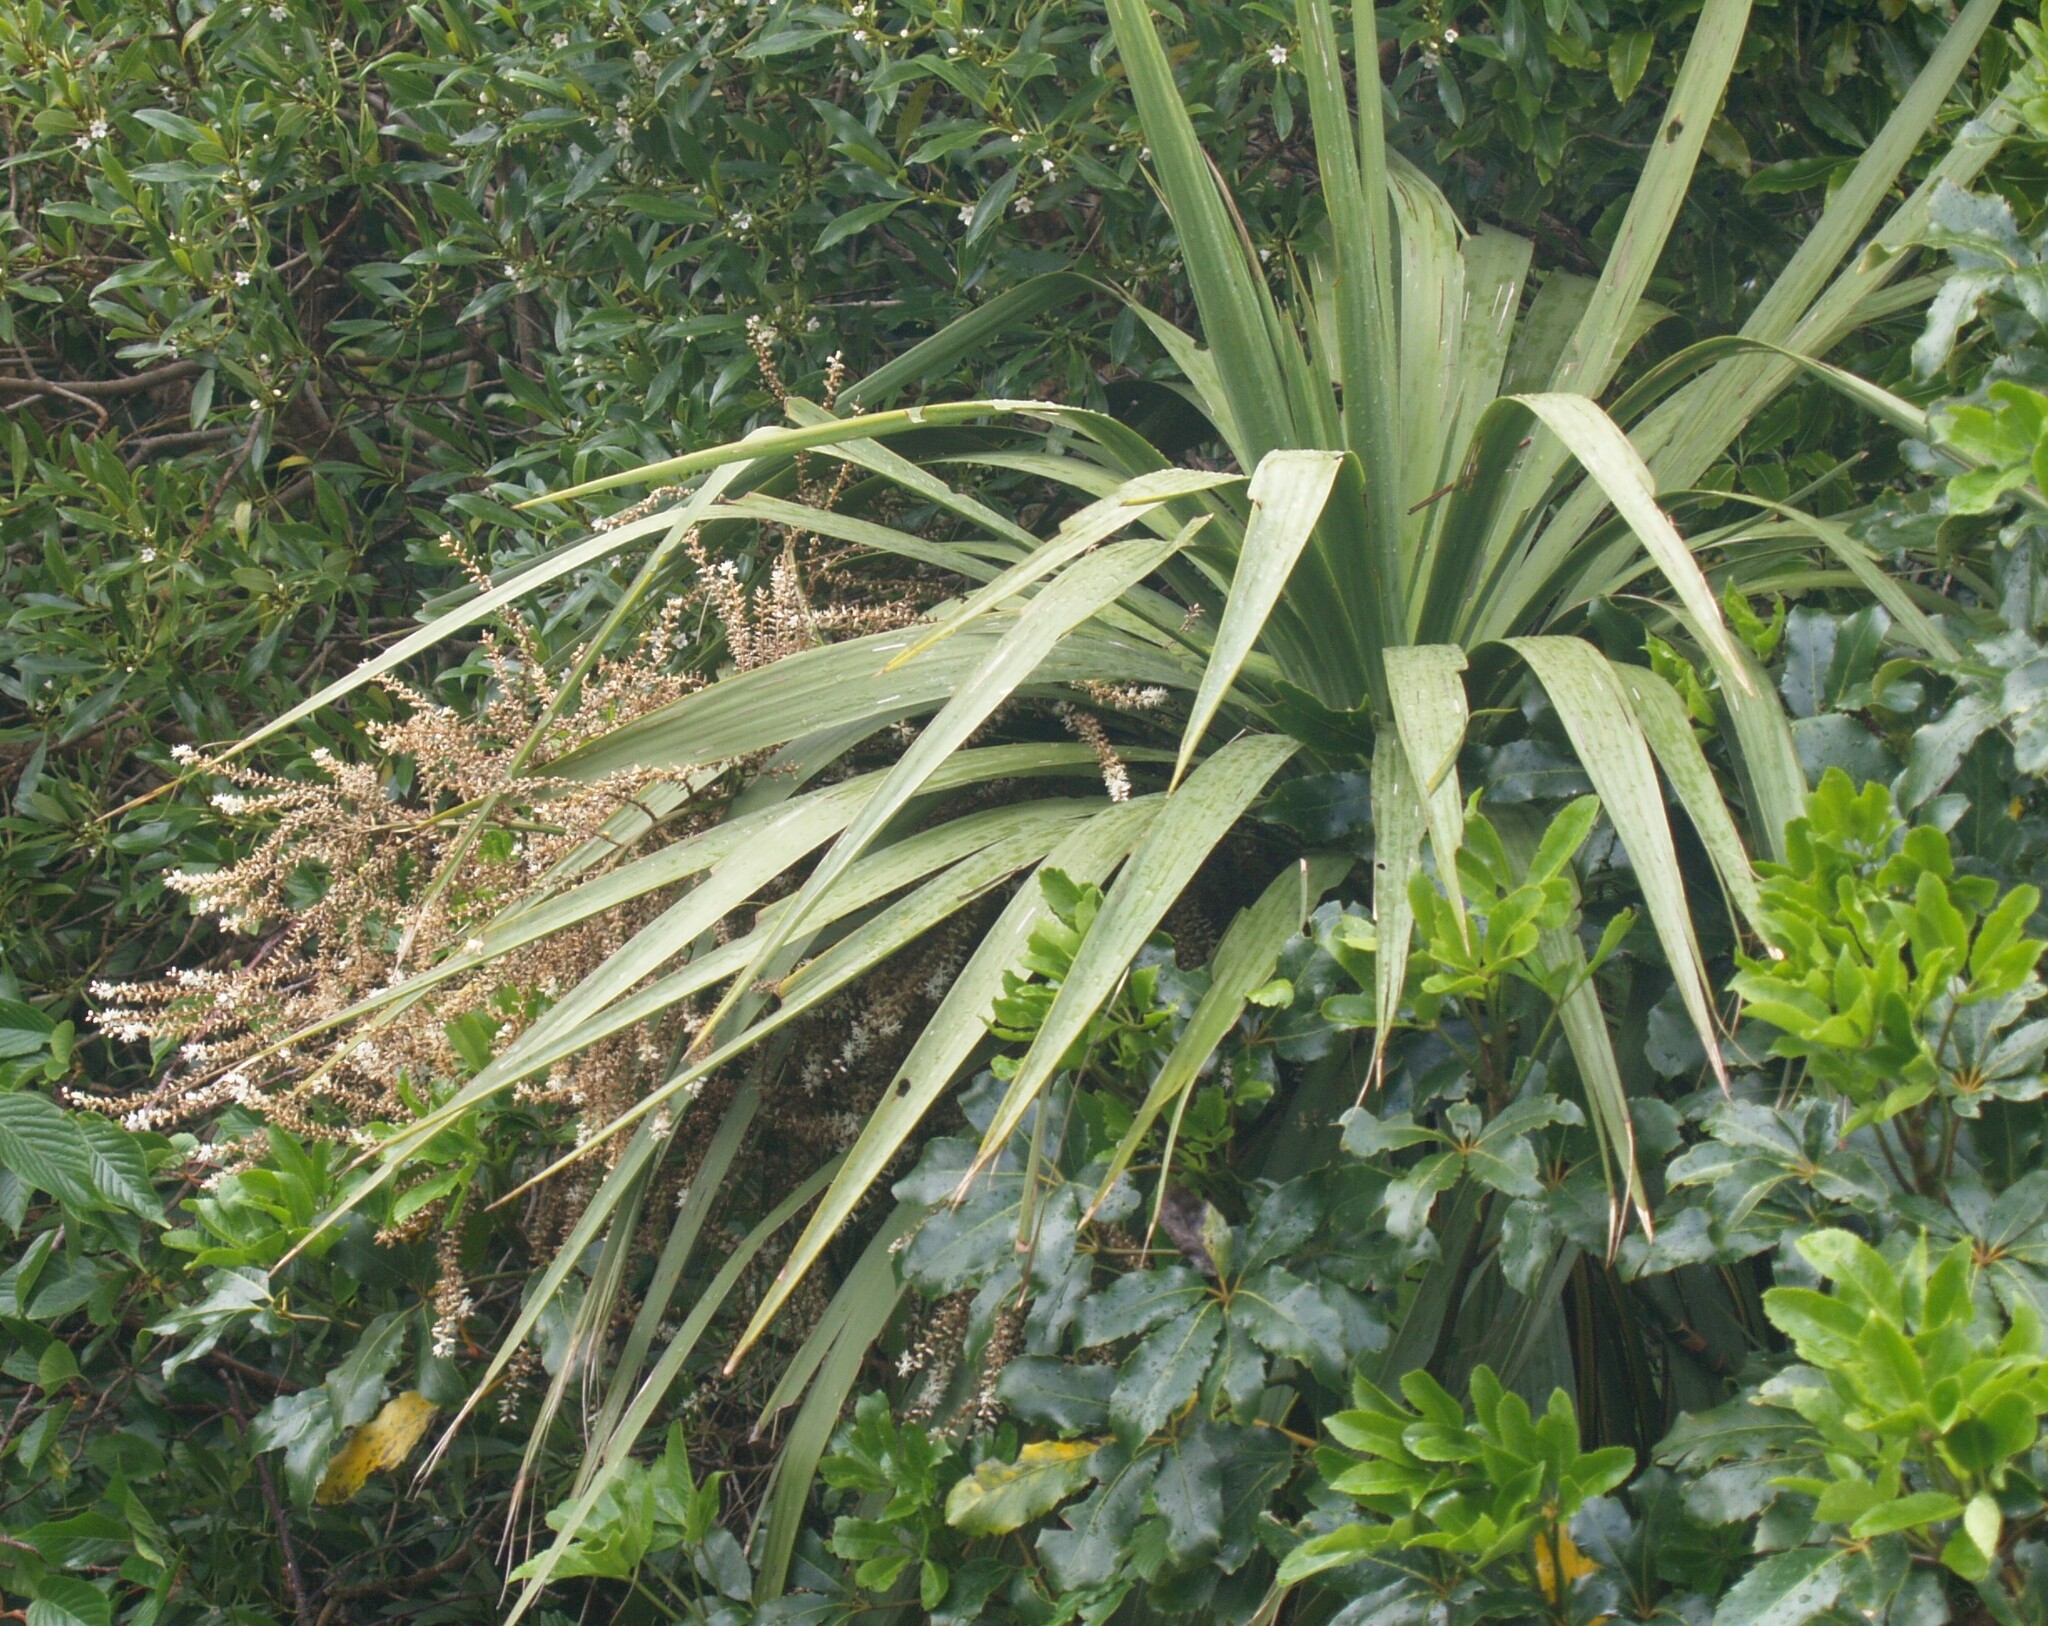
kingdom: Plantae
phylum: Tracheophyta
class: Liliopsida
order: Asparagales
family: Asparagaceae
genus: Cordyline
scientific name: Cordyline australis
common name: Cabbage-palm
